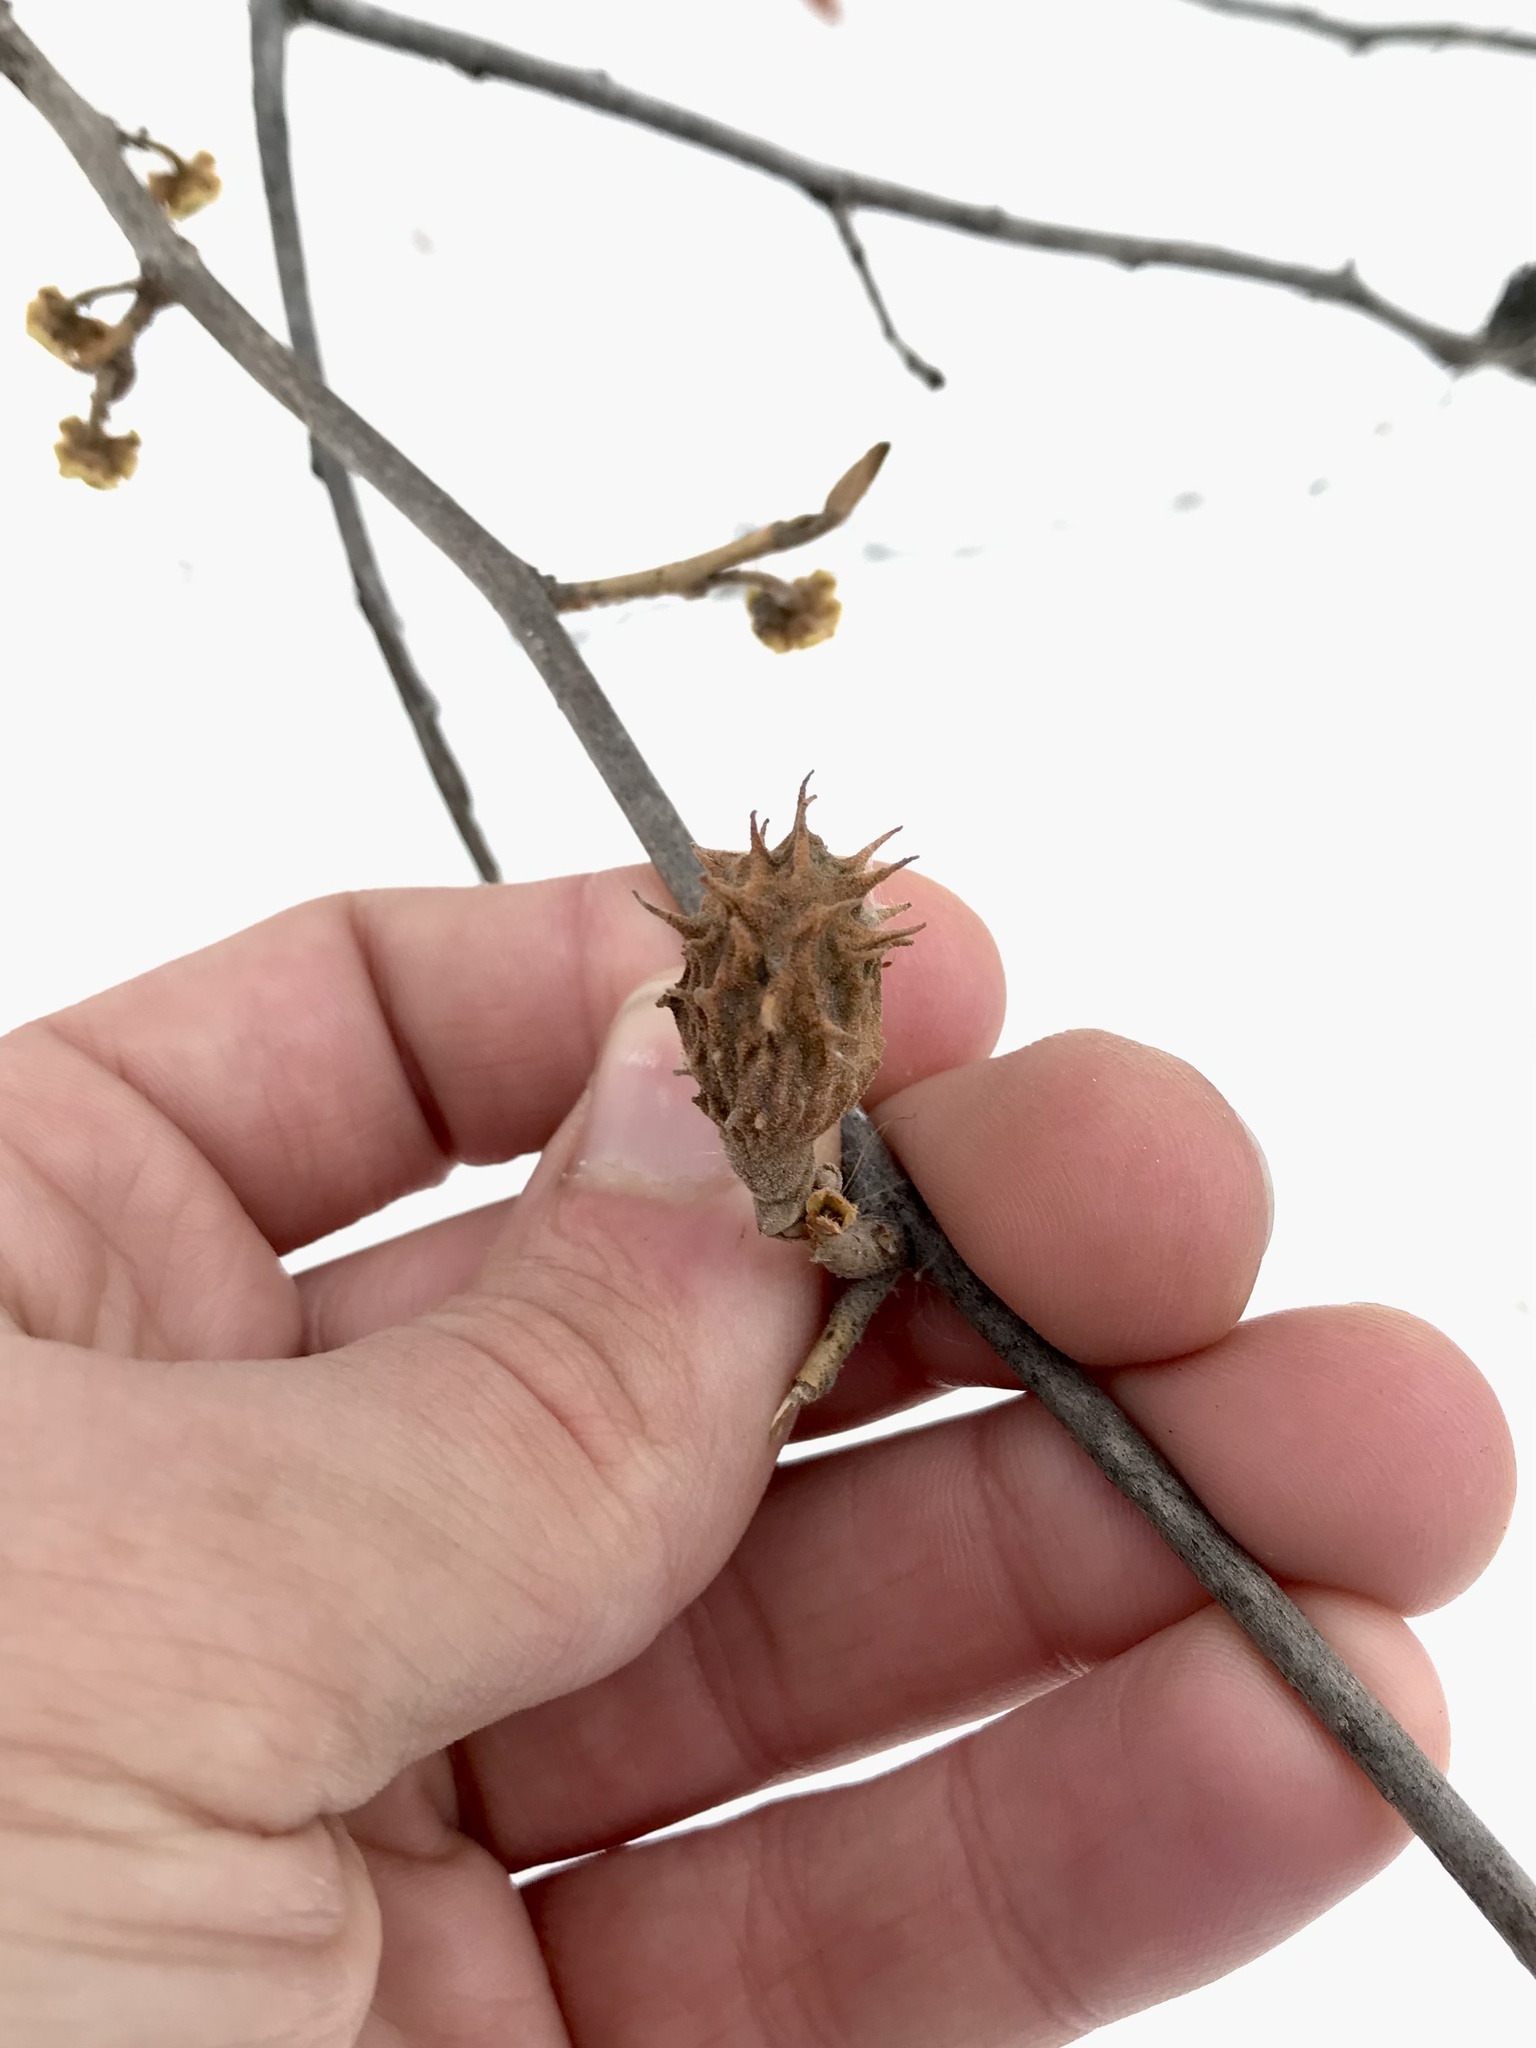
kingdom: Animalia
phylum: Arthropoda
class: Insecta
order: Hemiptera
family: Aphididae
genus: Hamamelistes
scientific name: Hamamelistes spinosus
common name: Witch hazel gall aphid
